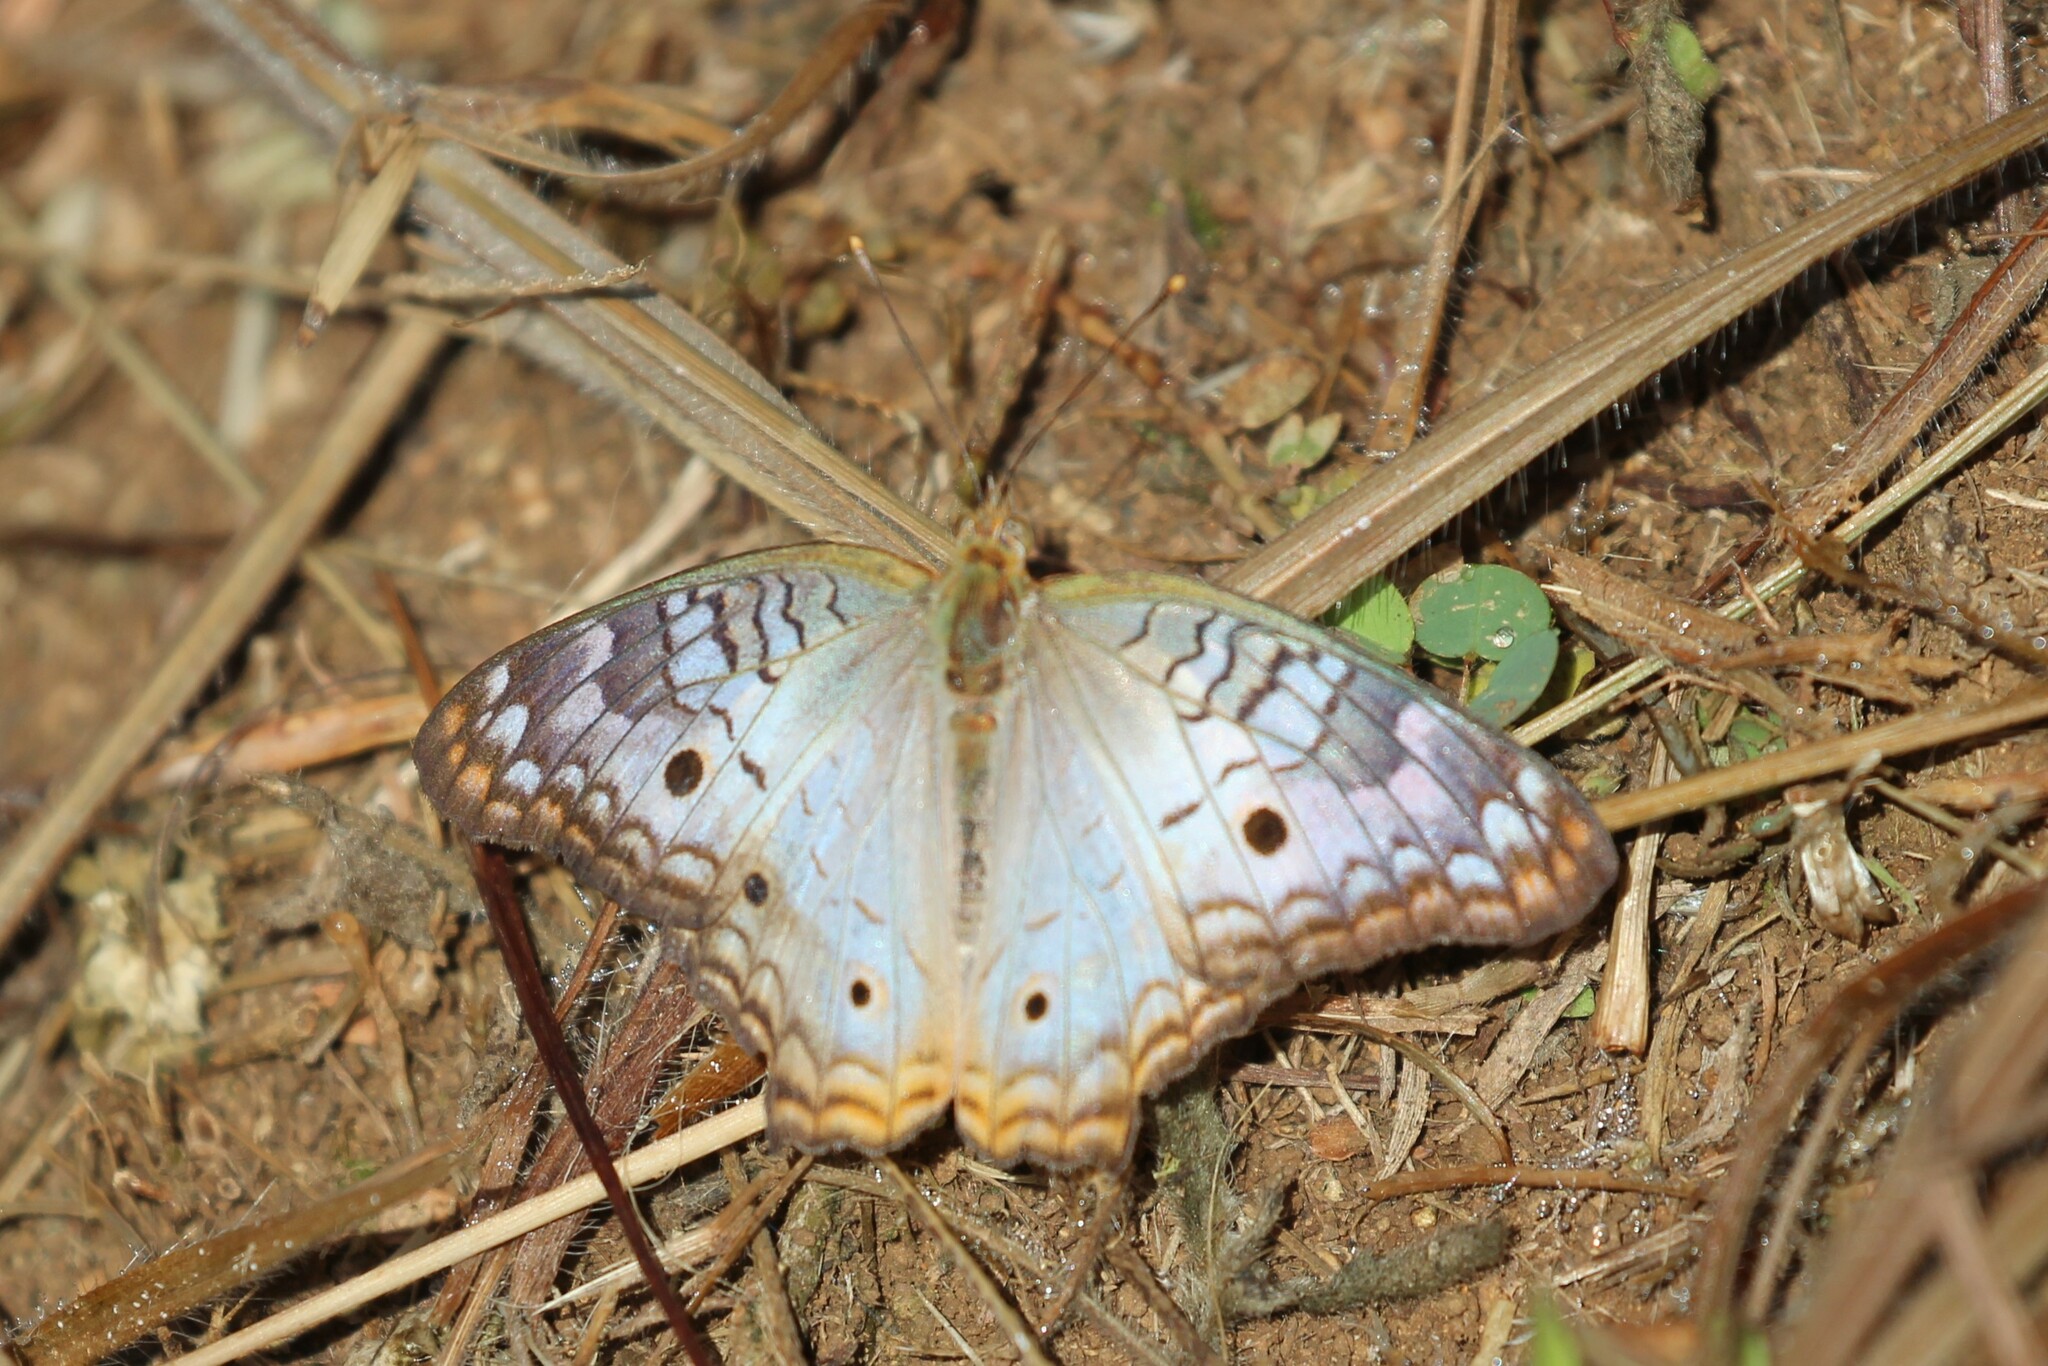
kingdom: Animalia
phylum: Arthropoda
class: Insecta
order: Lepidoptera
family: Nymphalidae
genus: Anartia
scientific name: Anartia jatrophae
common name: White peacock
